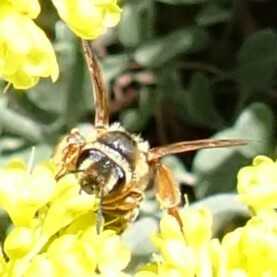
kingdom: Animalia
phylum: Arthropoda
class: Insecta
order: Hymenoptera
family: Andrenidae
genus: Andrena
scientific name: Andrena prunorum
